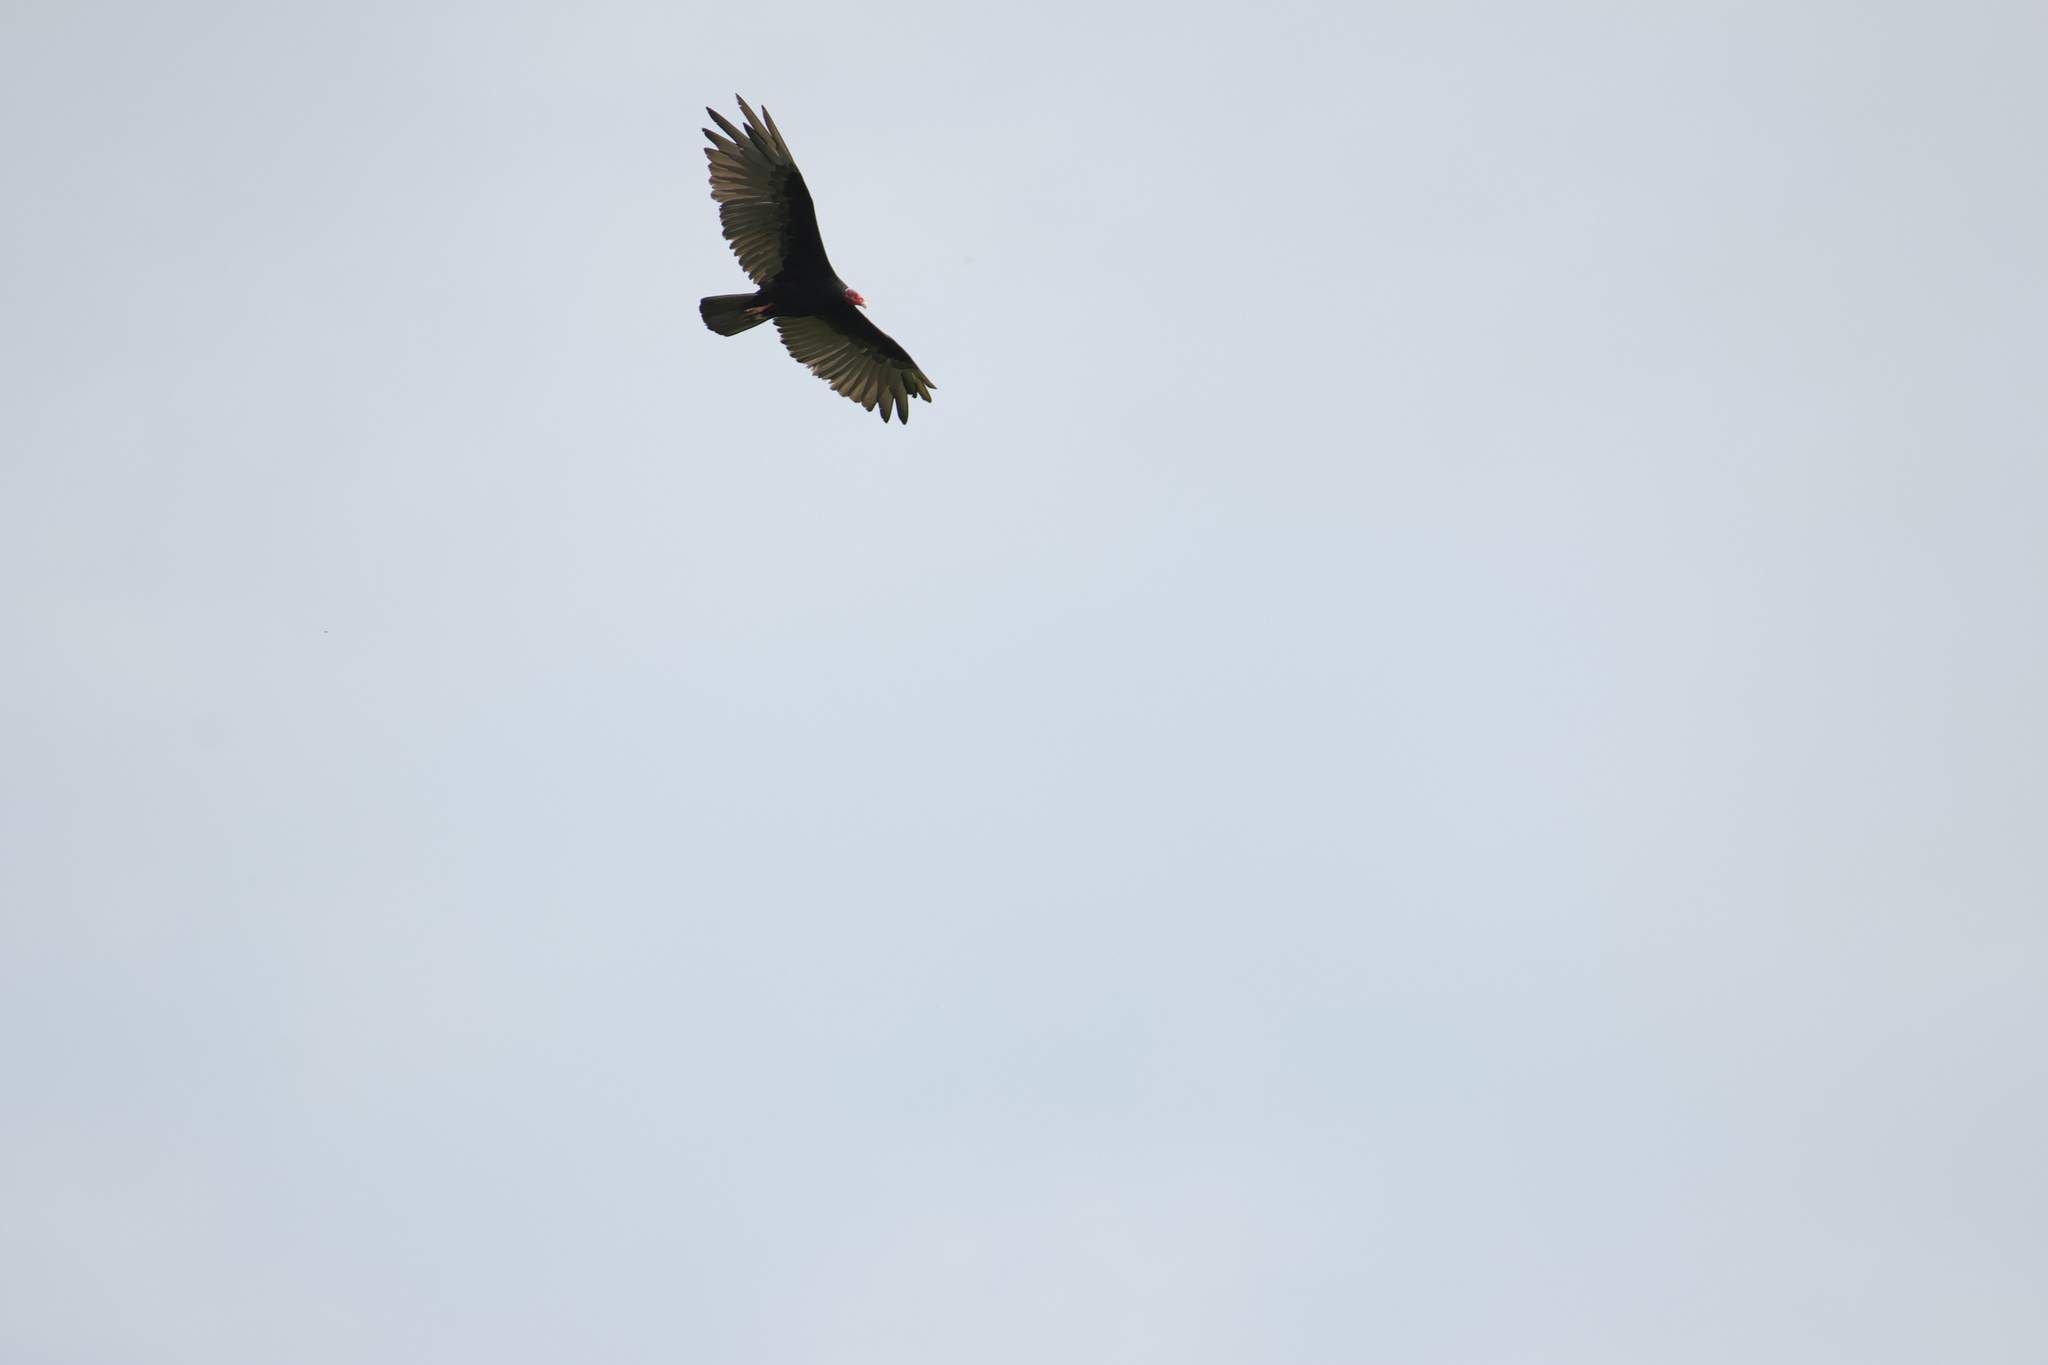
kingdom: Animalia
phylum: Chordata
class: Aves
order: Accipitriformes
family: Cathartidae
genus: Cathartes
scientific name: Cathartes aura
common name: Turkey vulture
